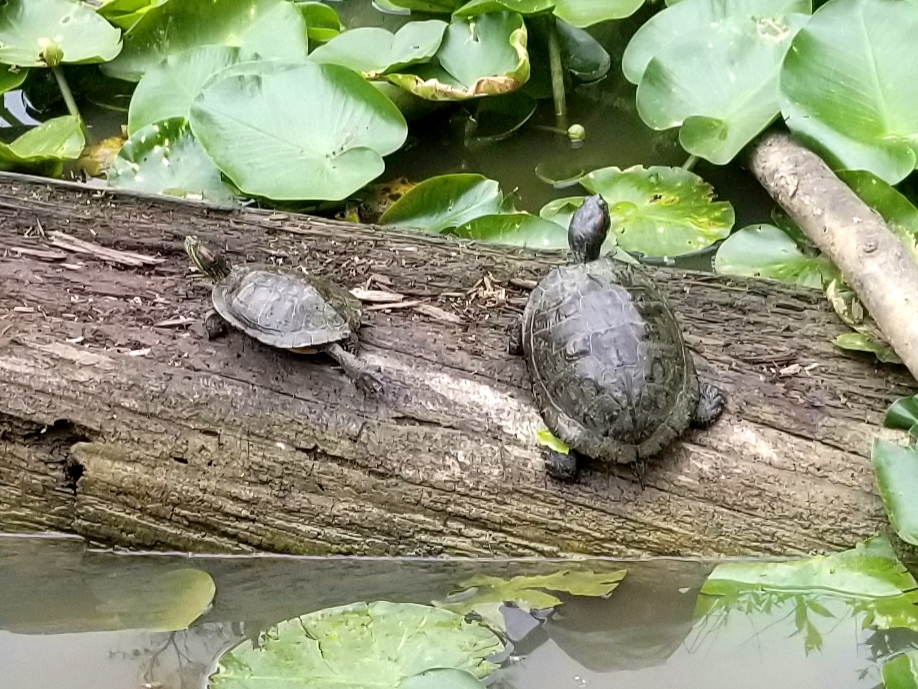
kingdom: Animalia
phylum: Chordata
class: Testudines
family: Emydidae
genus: Trachemys
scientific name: Trachemys scripta
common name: Slider
